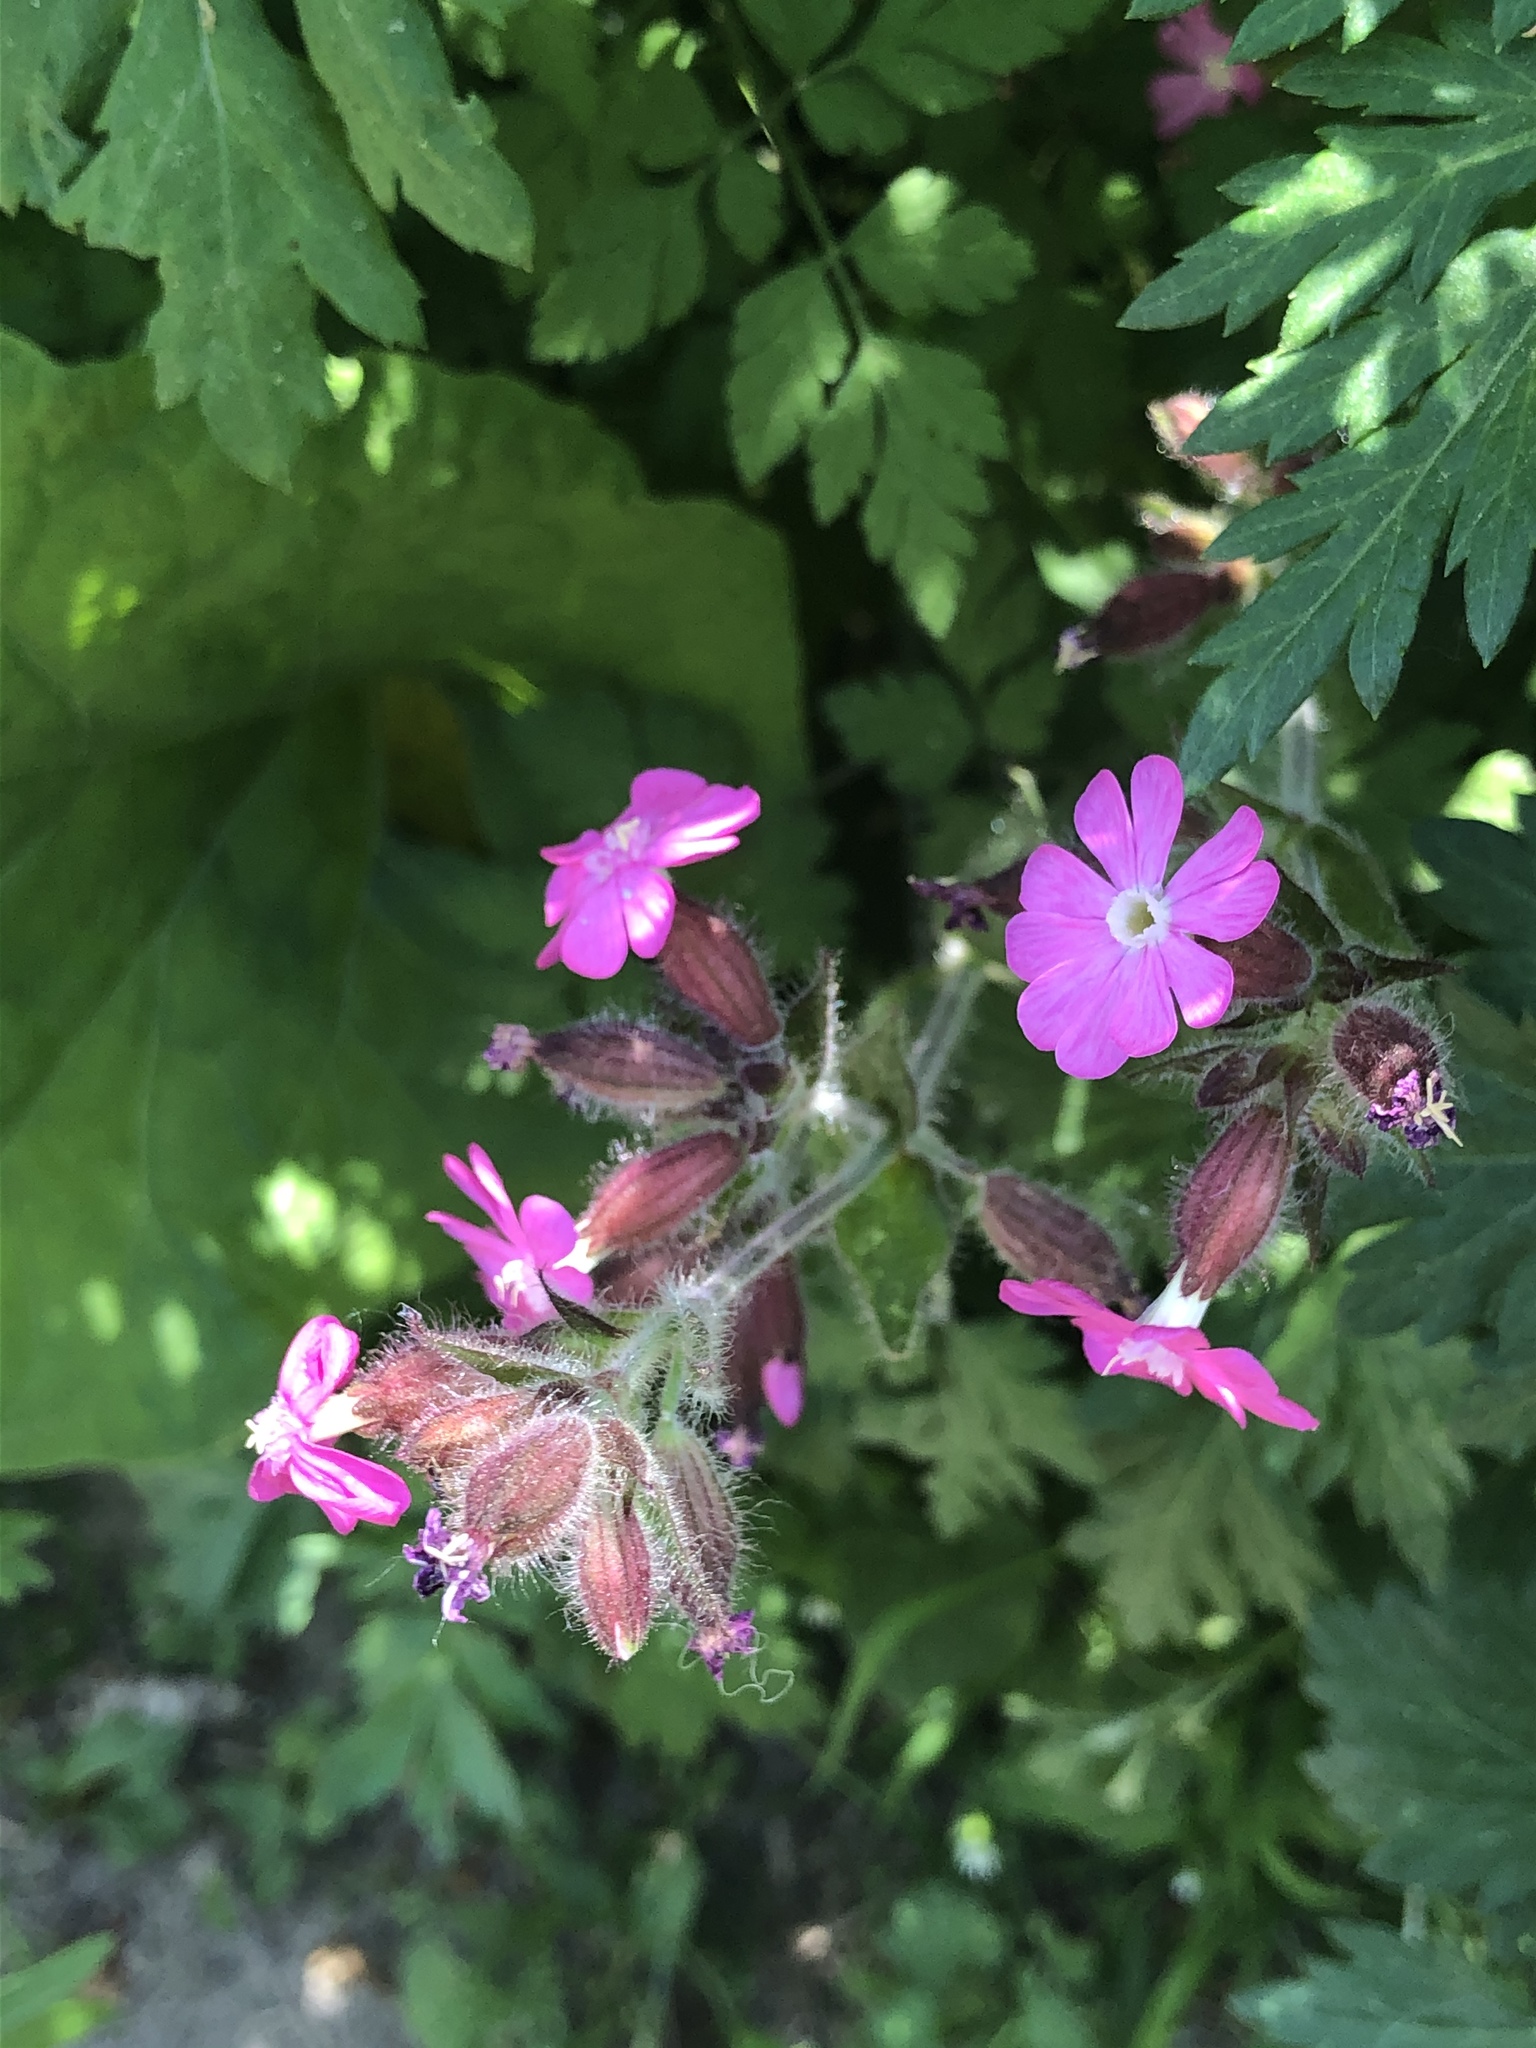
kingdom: Plantae
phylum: Tracheophyta
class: Magnoliopsida
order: Caryophyllales
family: Caryophyllaceae
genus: Silene
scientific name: Silene dioica
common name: Red campion
